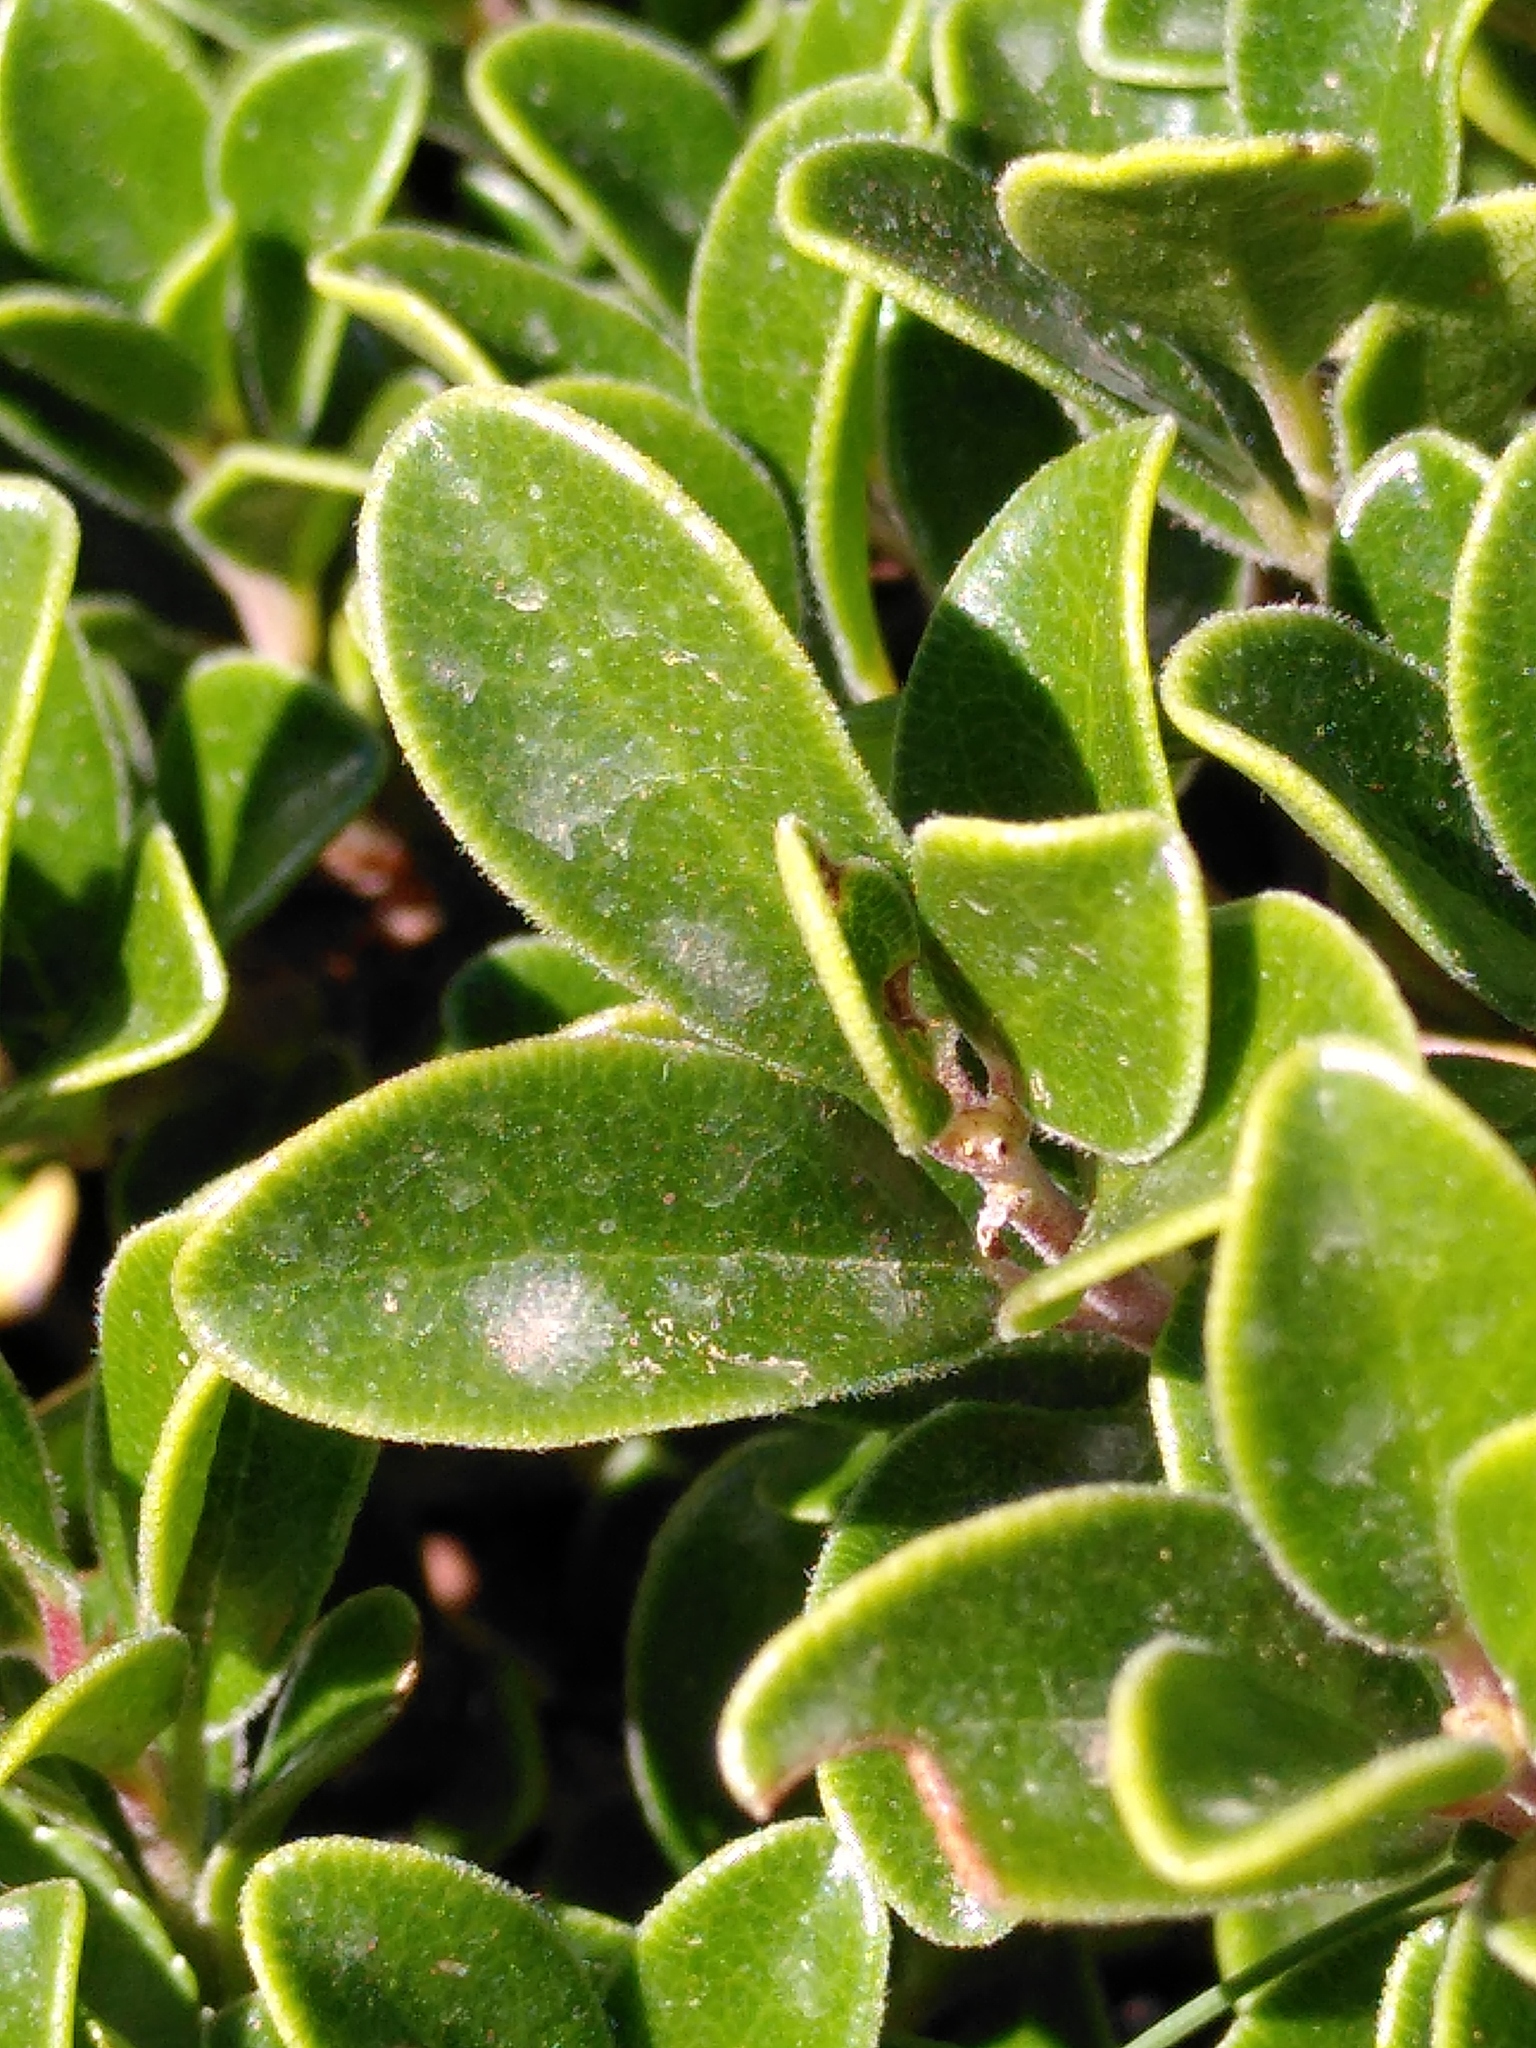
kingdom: Plantae
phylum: Tracheophyta
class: Magnoliopsida
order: Ericales
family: Ericaceae
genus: Arctostaphylos
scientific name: Arctostaphylos uva-ursi
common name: Bearberry
